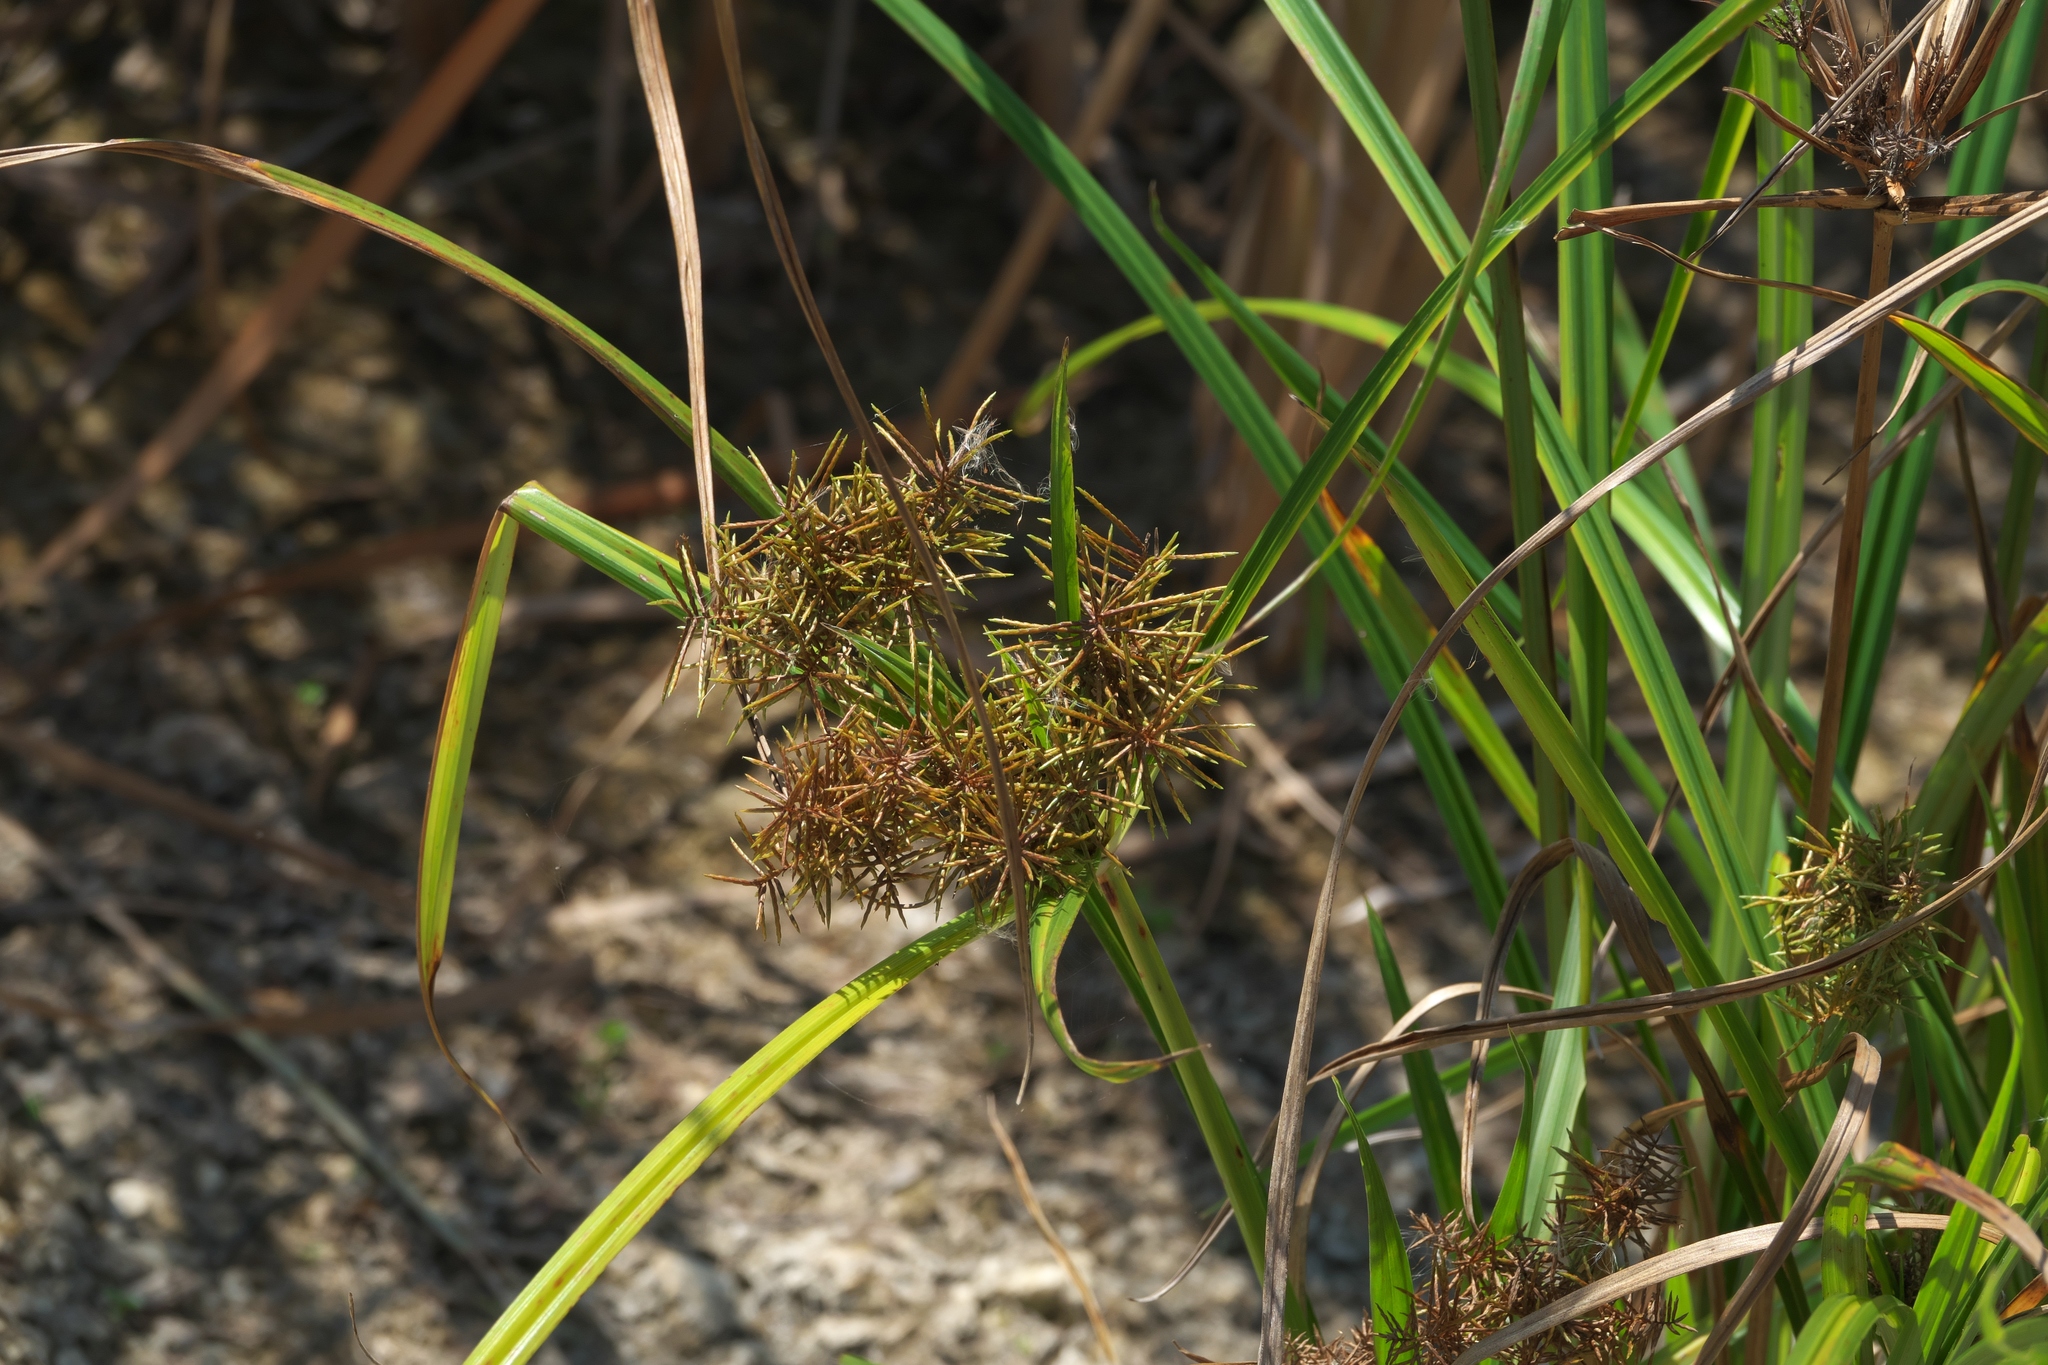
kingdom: Plantae
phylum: Tracheophyta
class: Liliopsida
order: Poales
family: Cyperaceae
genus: Cyperus
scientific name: Cyperus odoratus
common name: Fragrant flatsedge
